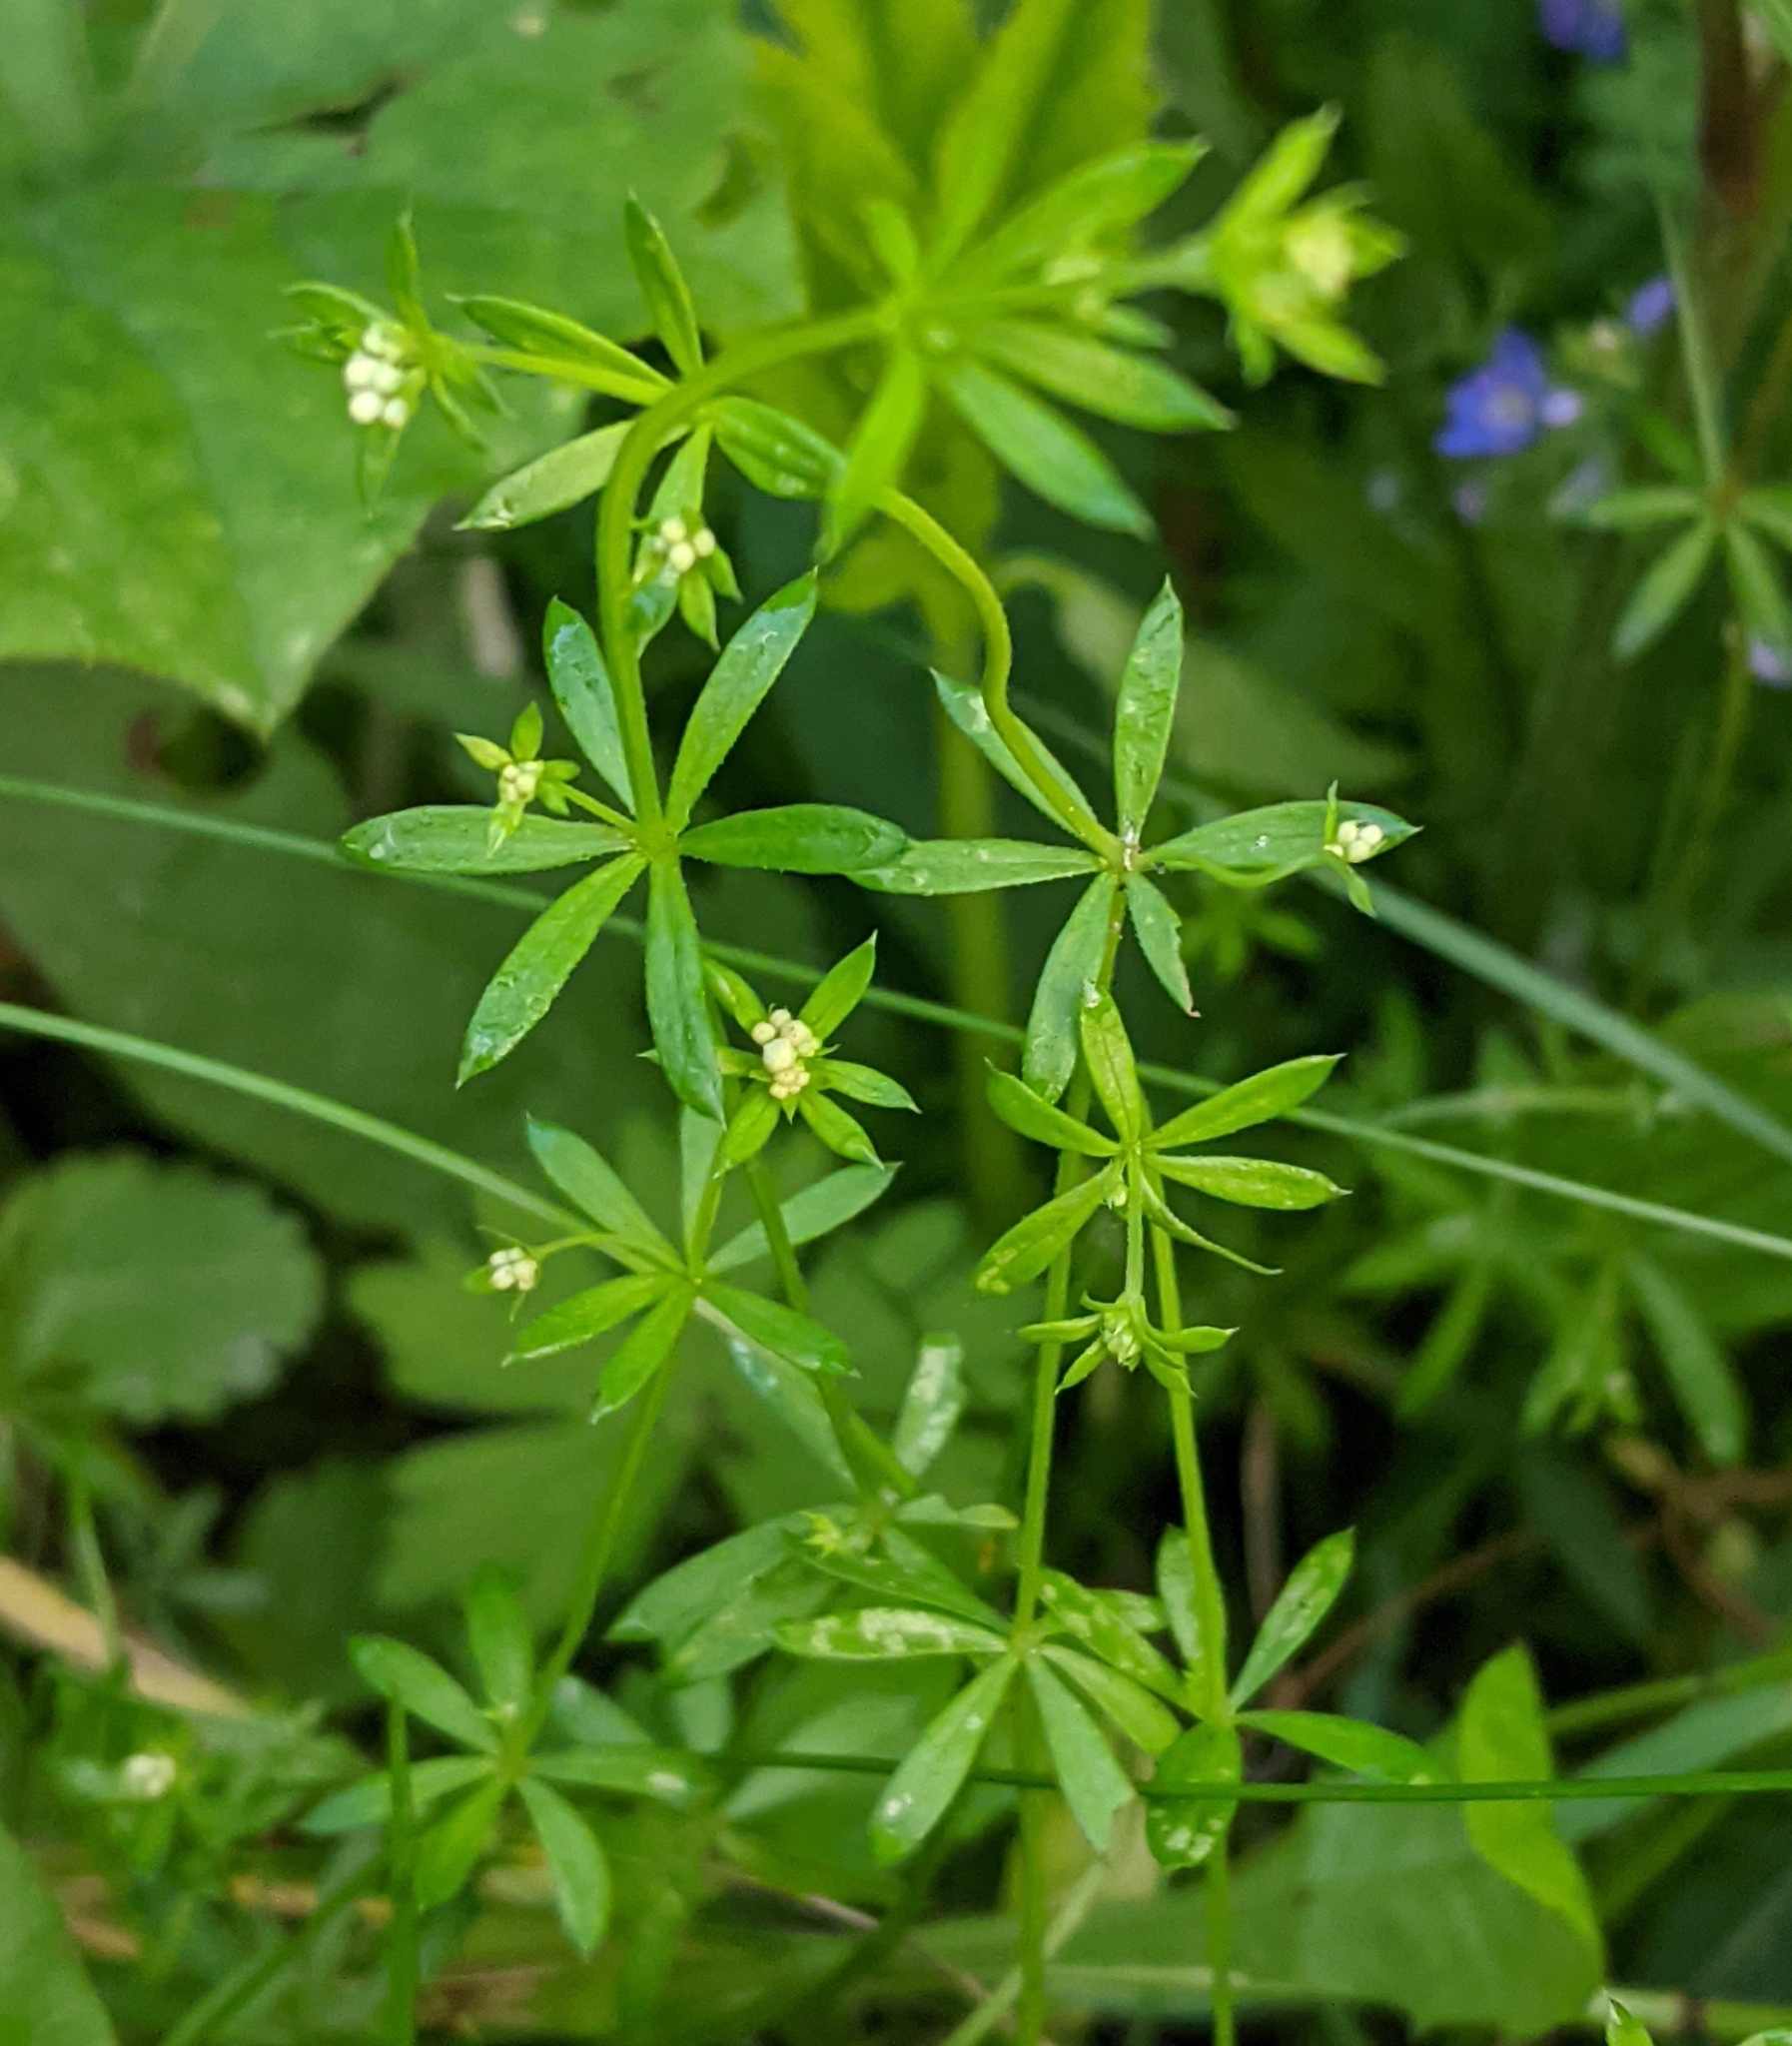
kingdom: Plantae
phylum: Tracheophyta
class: Magnoliopsida
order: Gentianales
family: Rubiaceae
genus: Galium
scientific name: Galium uliginosum
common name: Fen bedstraw
